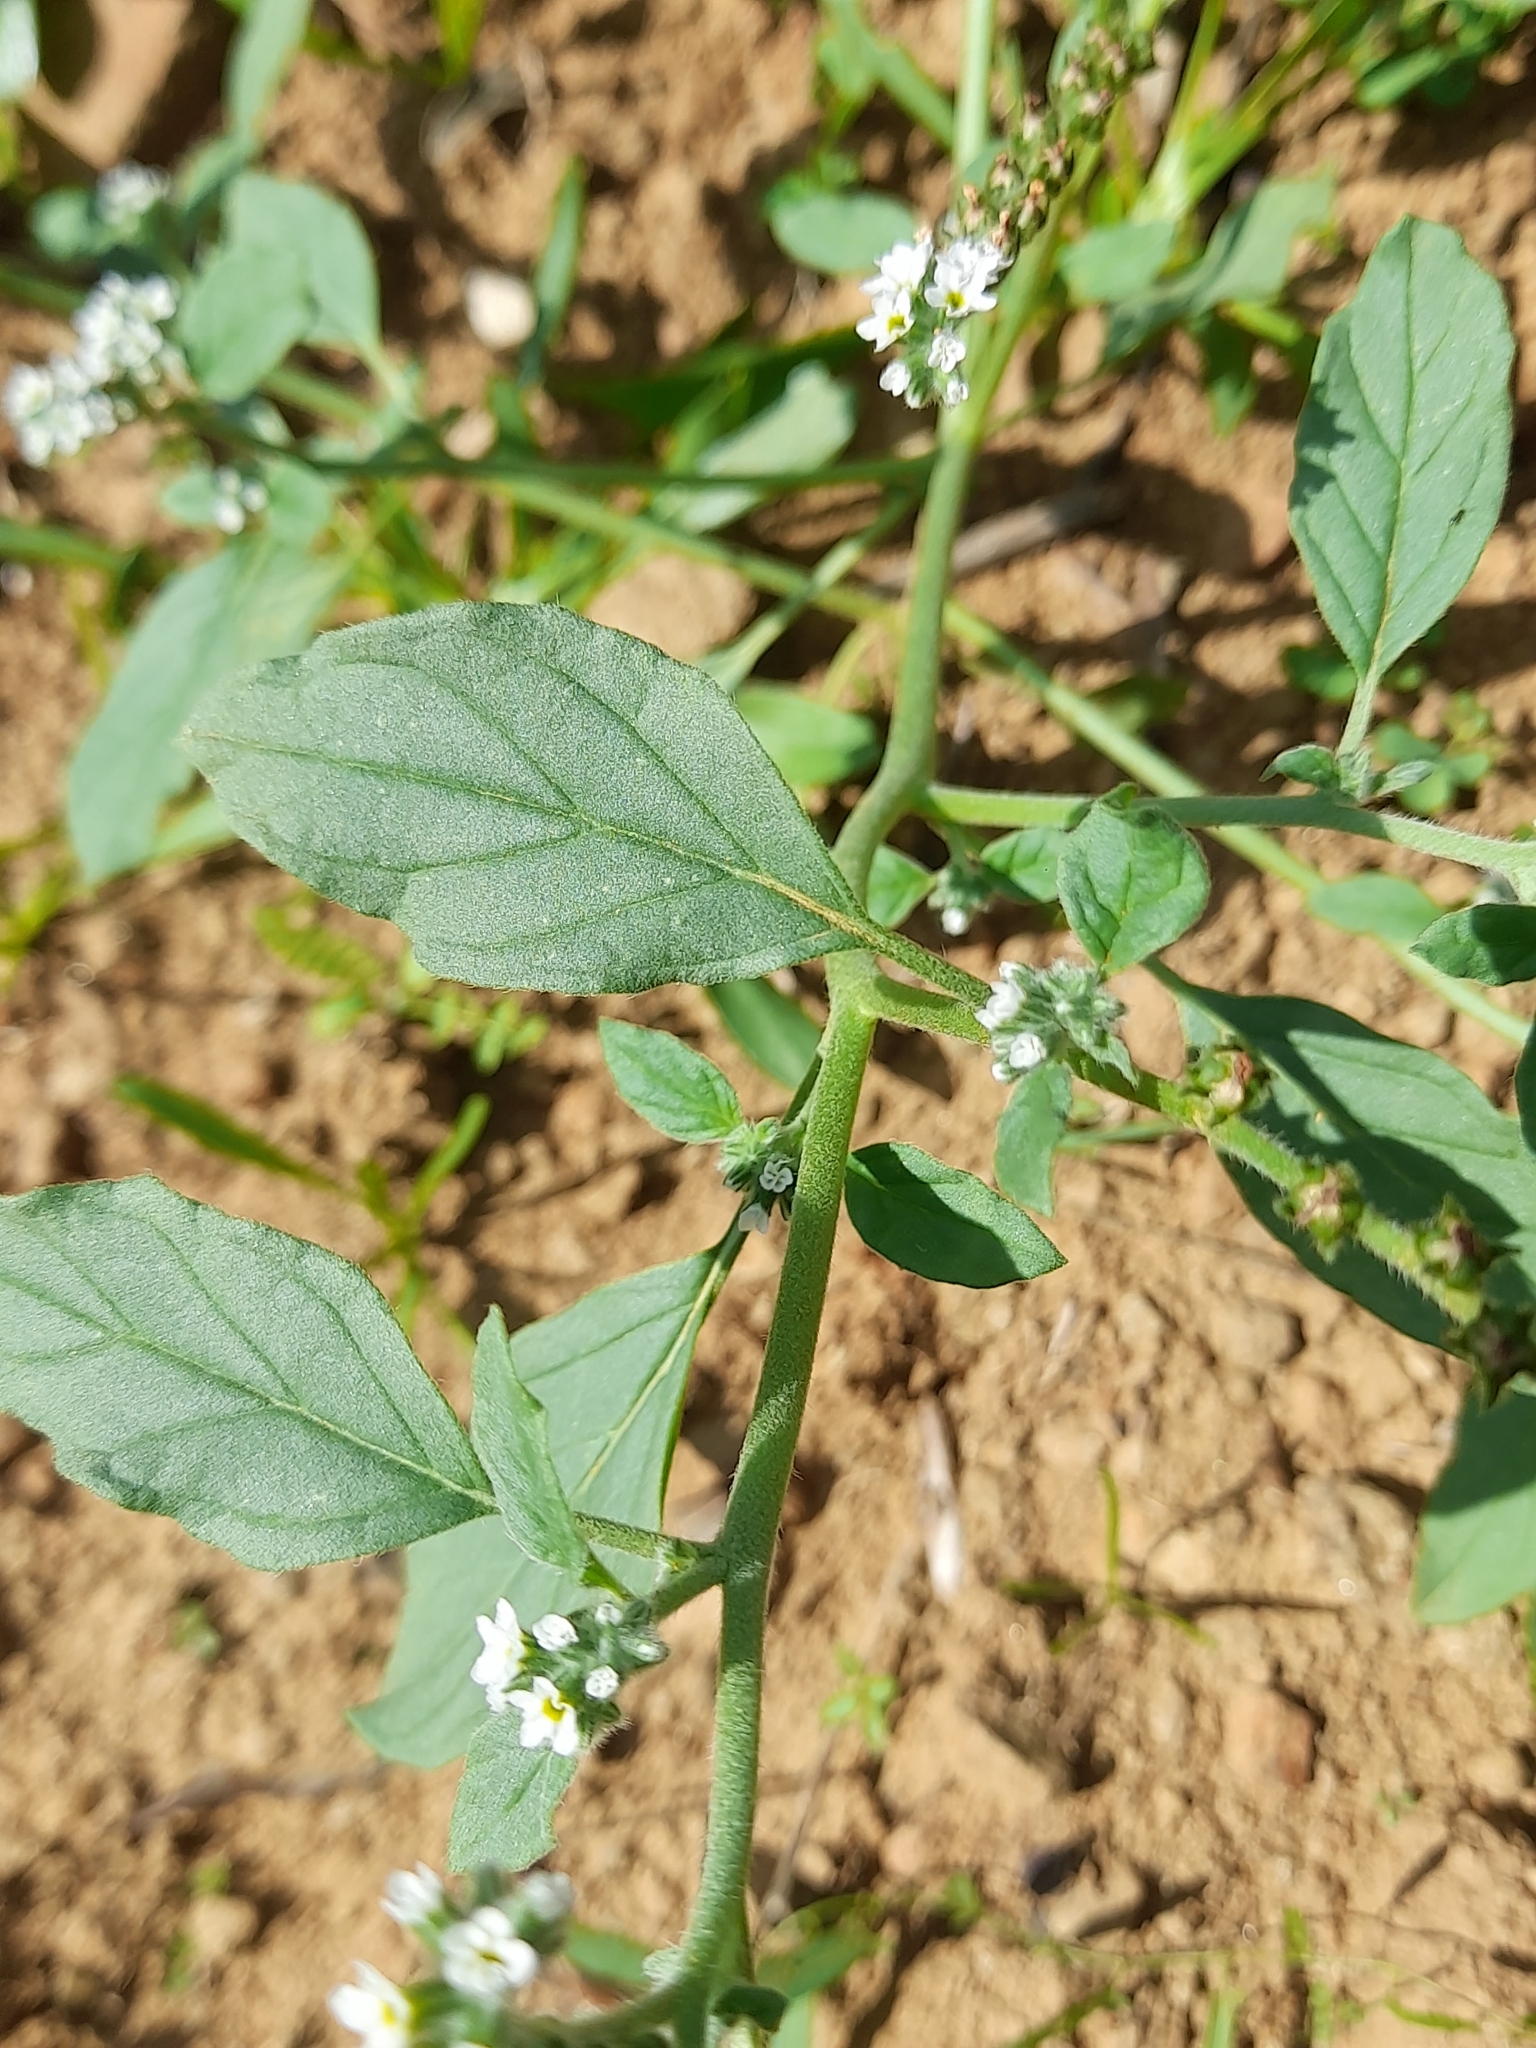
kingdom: Plantae
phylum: Tracheophyta
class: Magnoliopsida
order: Boraginales
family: Heliotropiaceae
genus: Heliotropium
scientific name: Heliotropium europaeum
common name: European heliotrope
